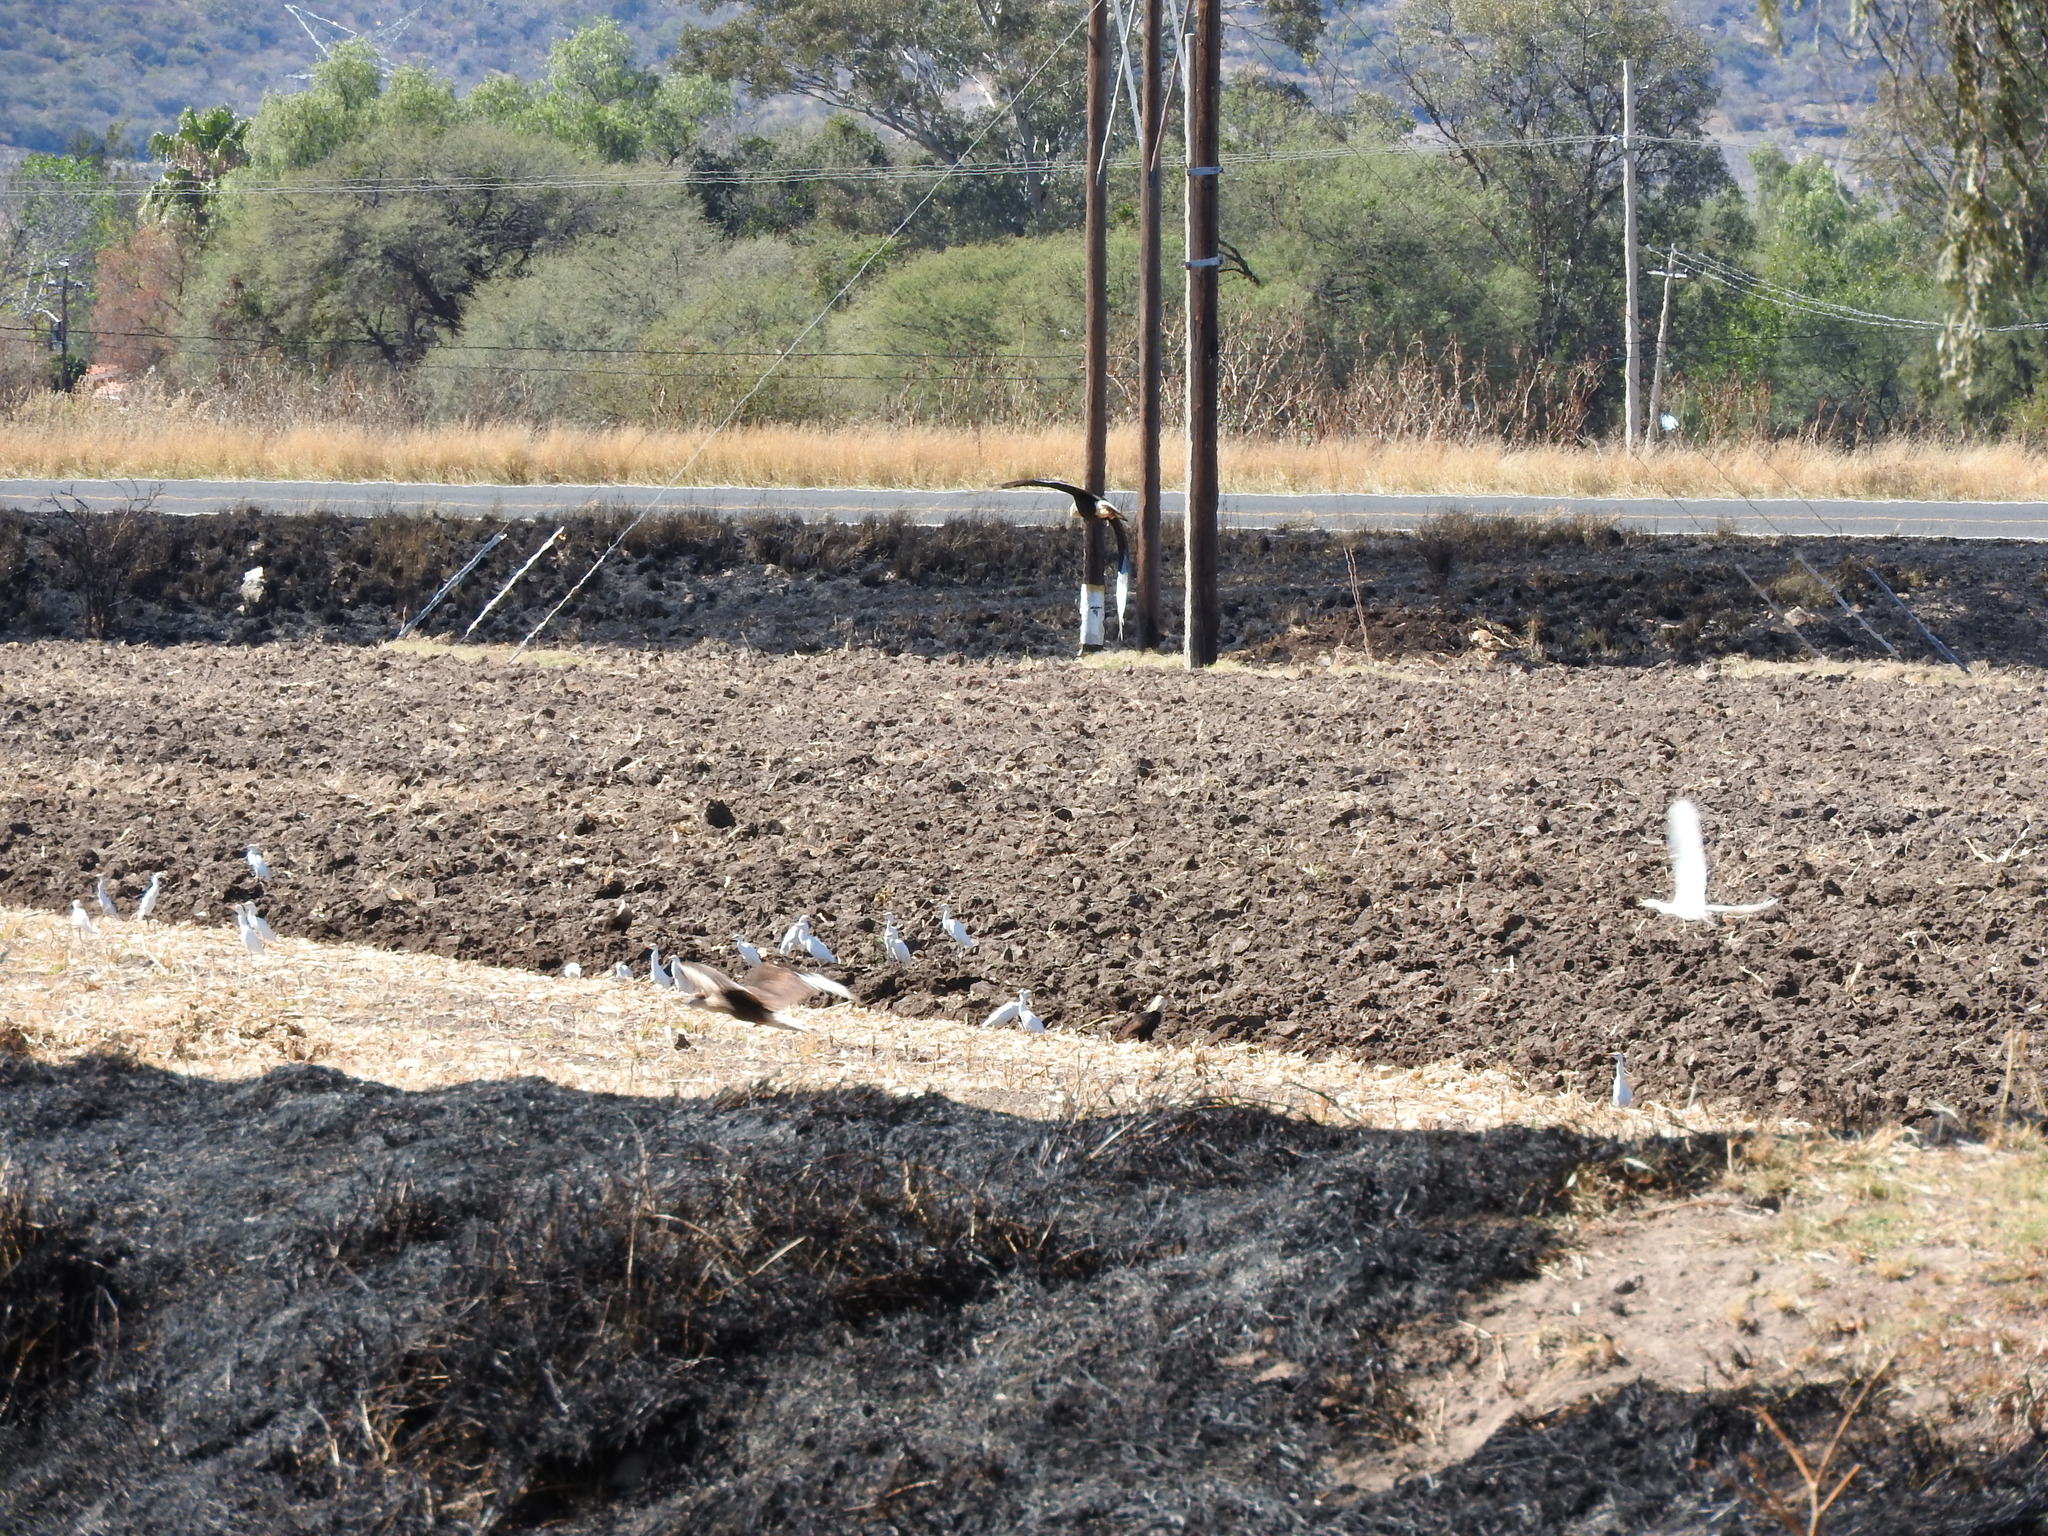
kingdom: Animalia
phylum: Chordata
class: Aves
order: Falconiformes
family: Falconidae
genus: Caracara
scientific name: Caracara plancus
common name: Southern caracara
